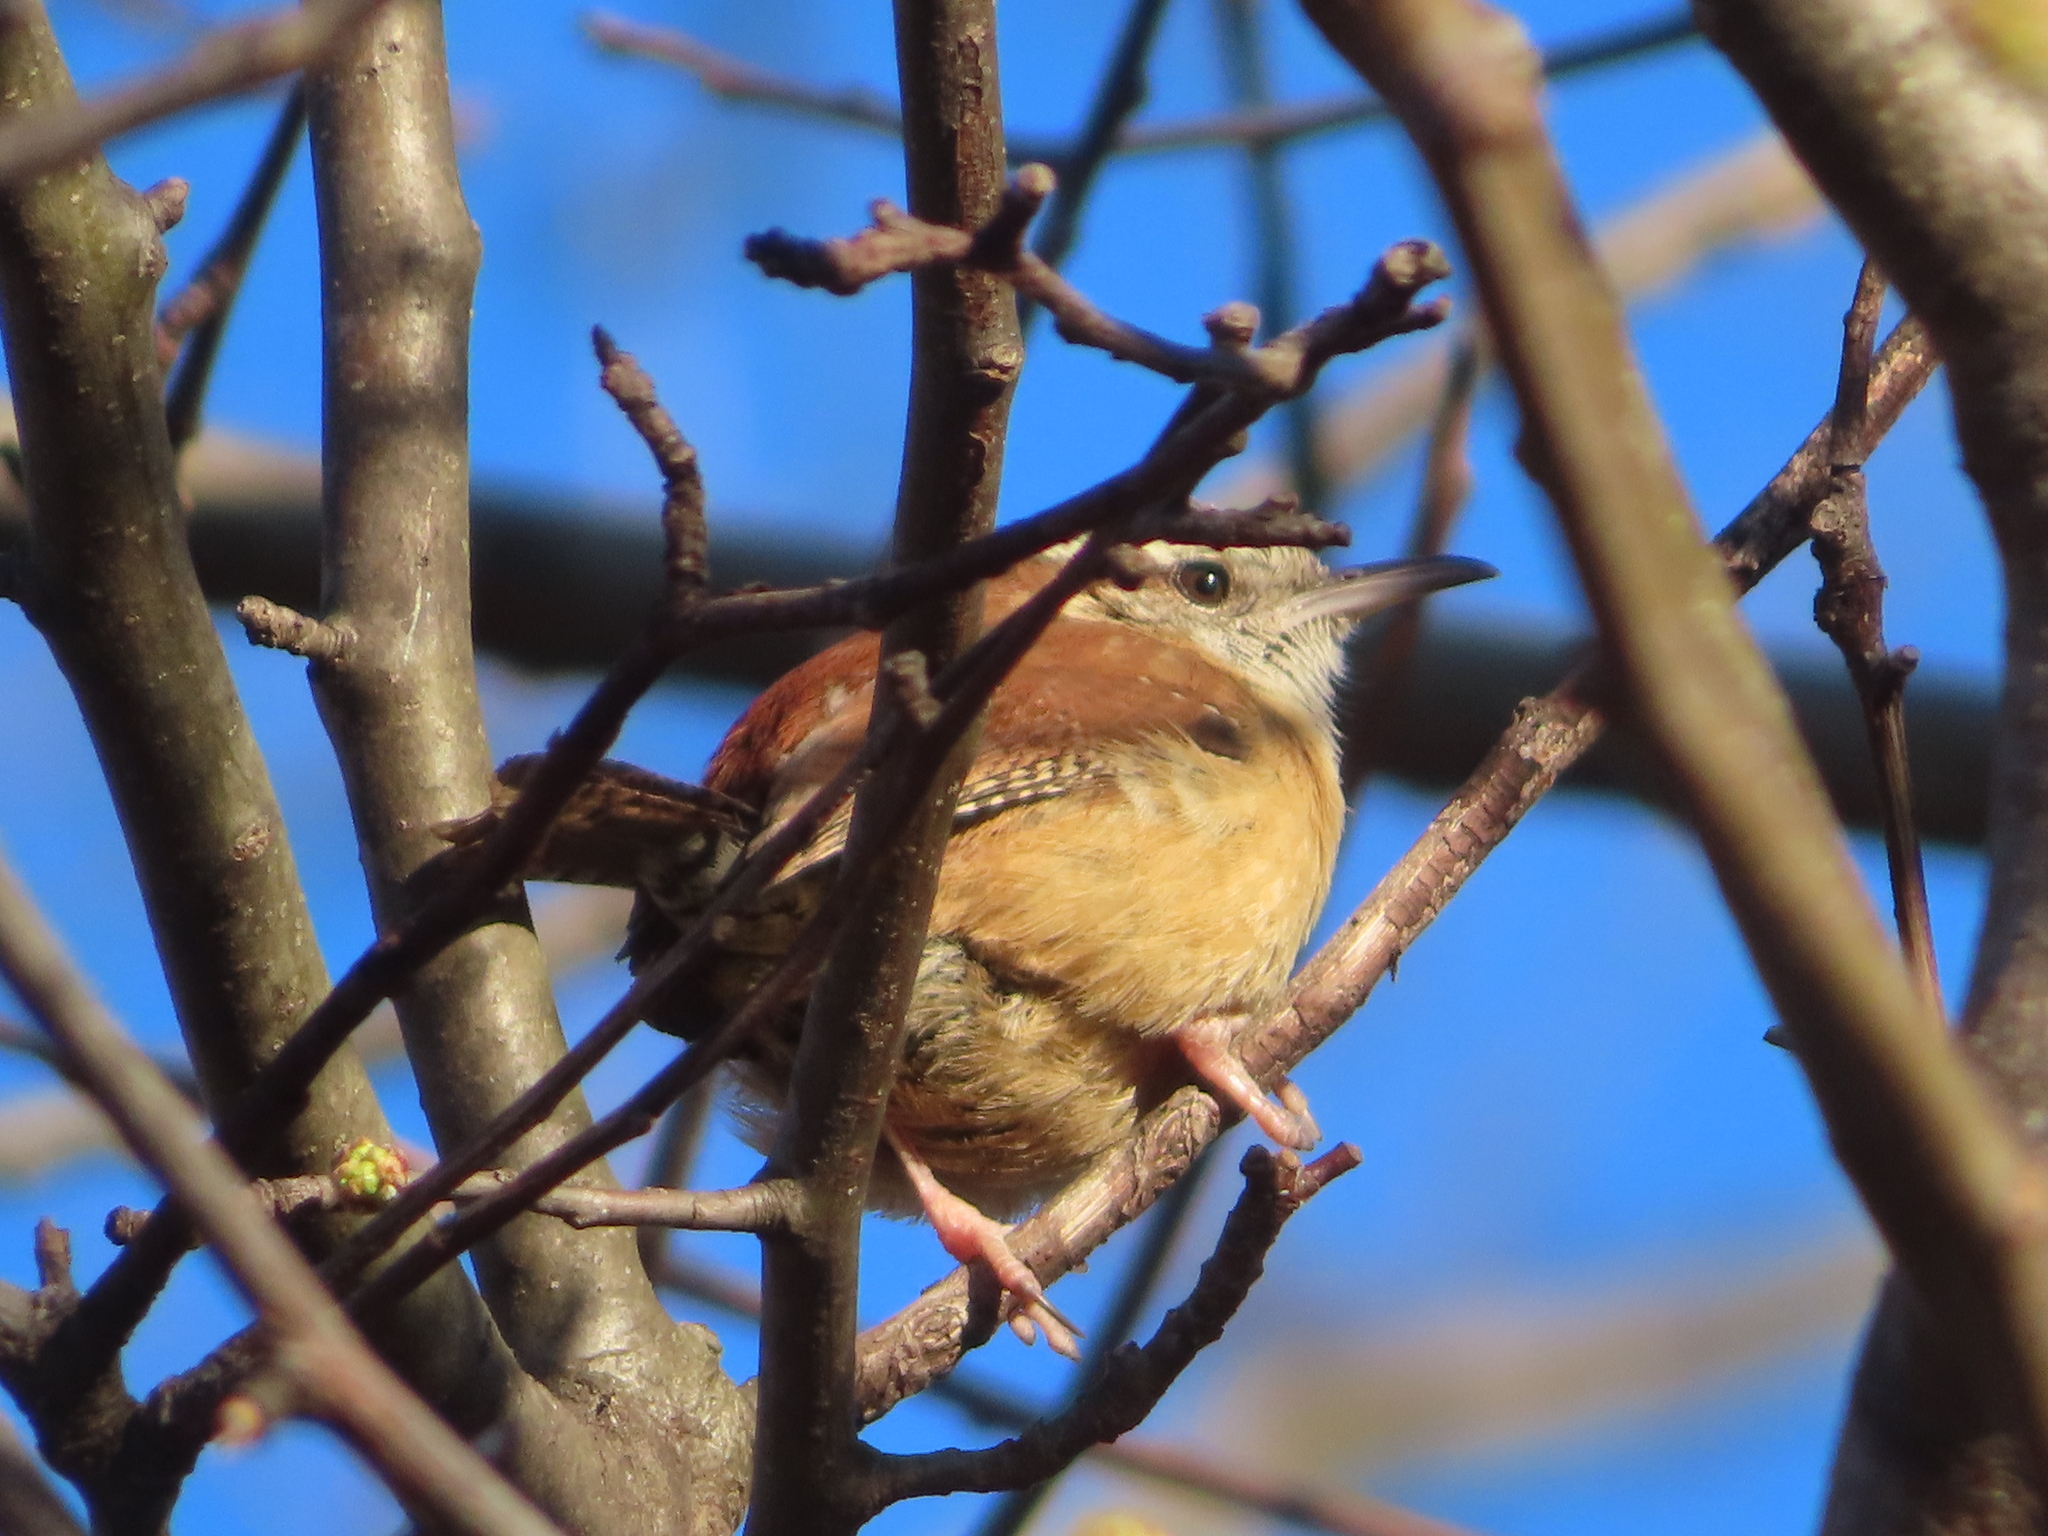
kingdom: Animalia
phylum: Chordata
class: Aves
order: Passeriformes
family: Troglodytidae
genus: Thryothorus
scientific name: Thryothorus ludovicianus
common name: Carolina wren
